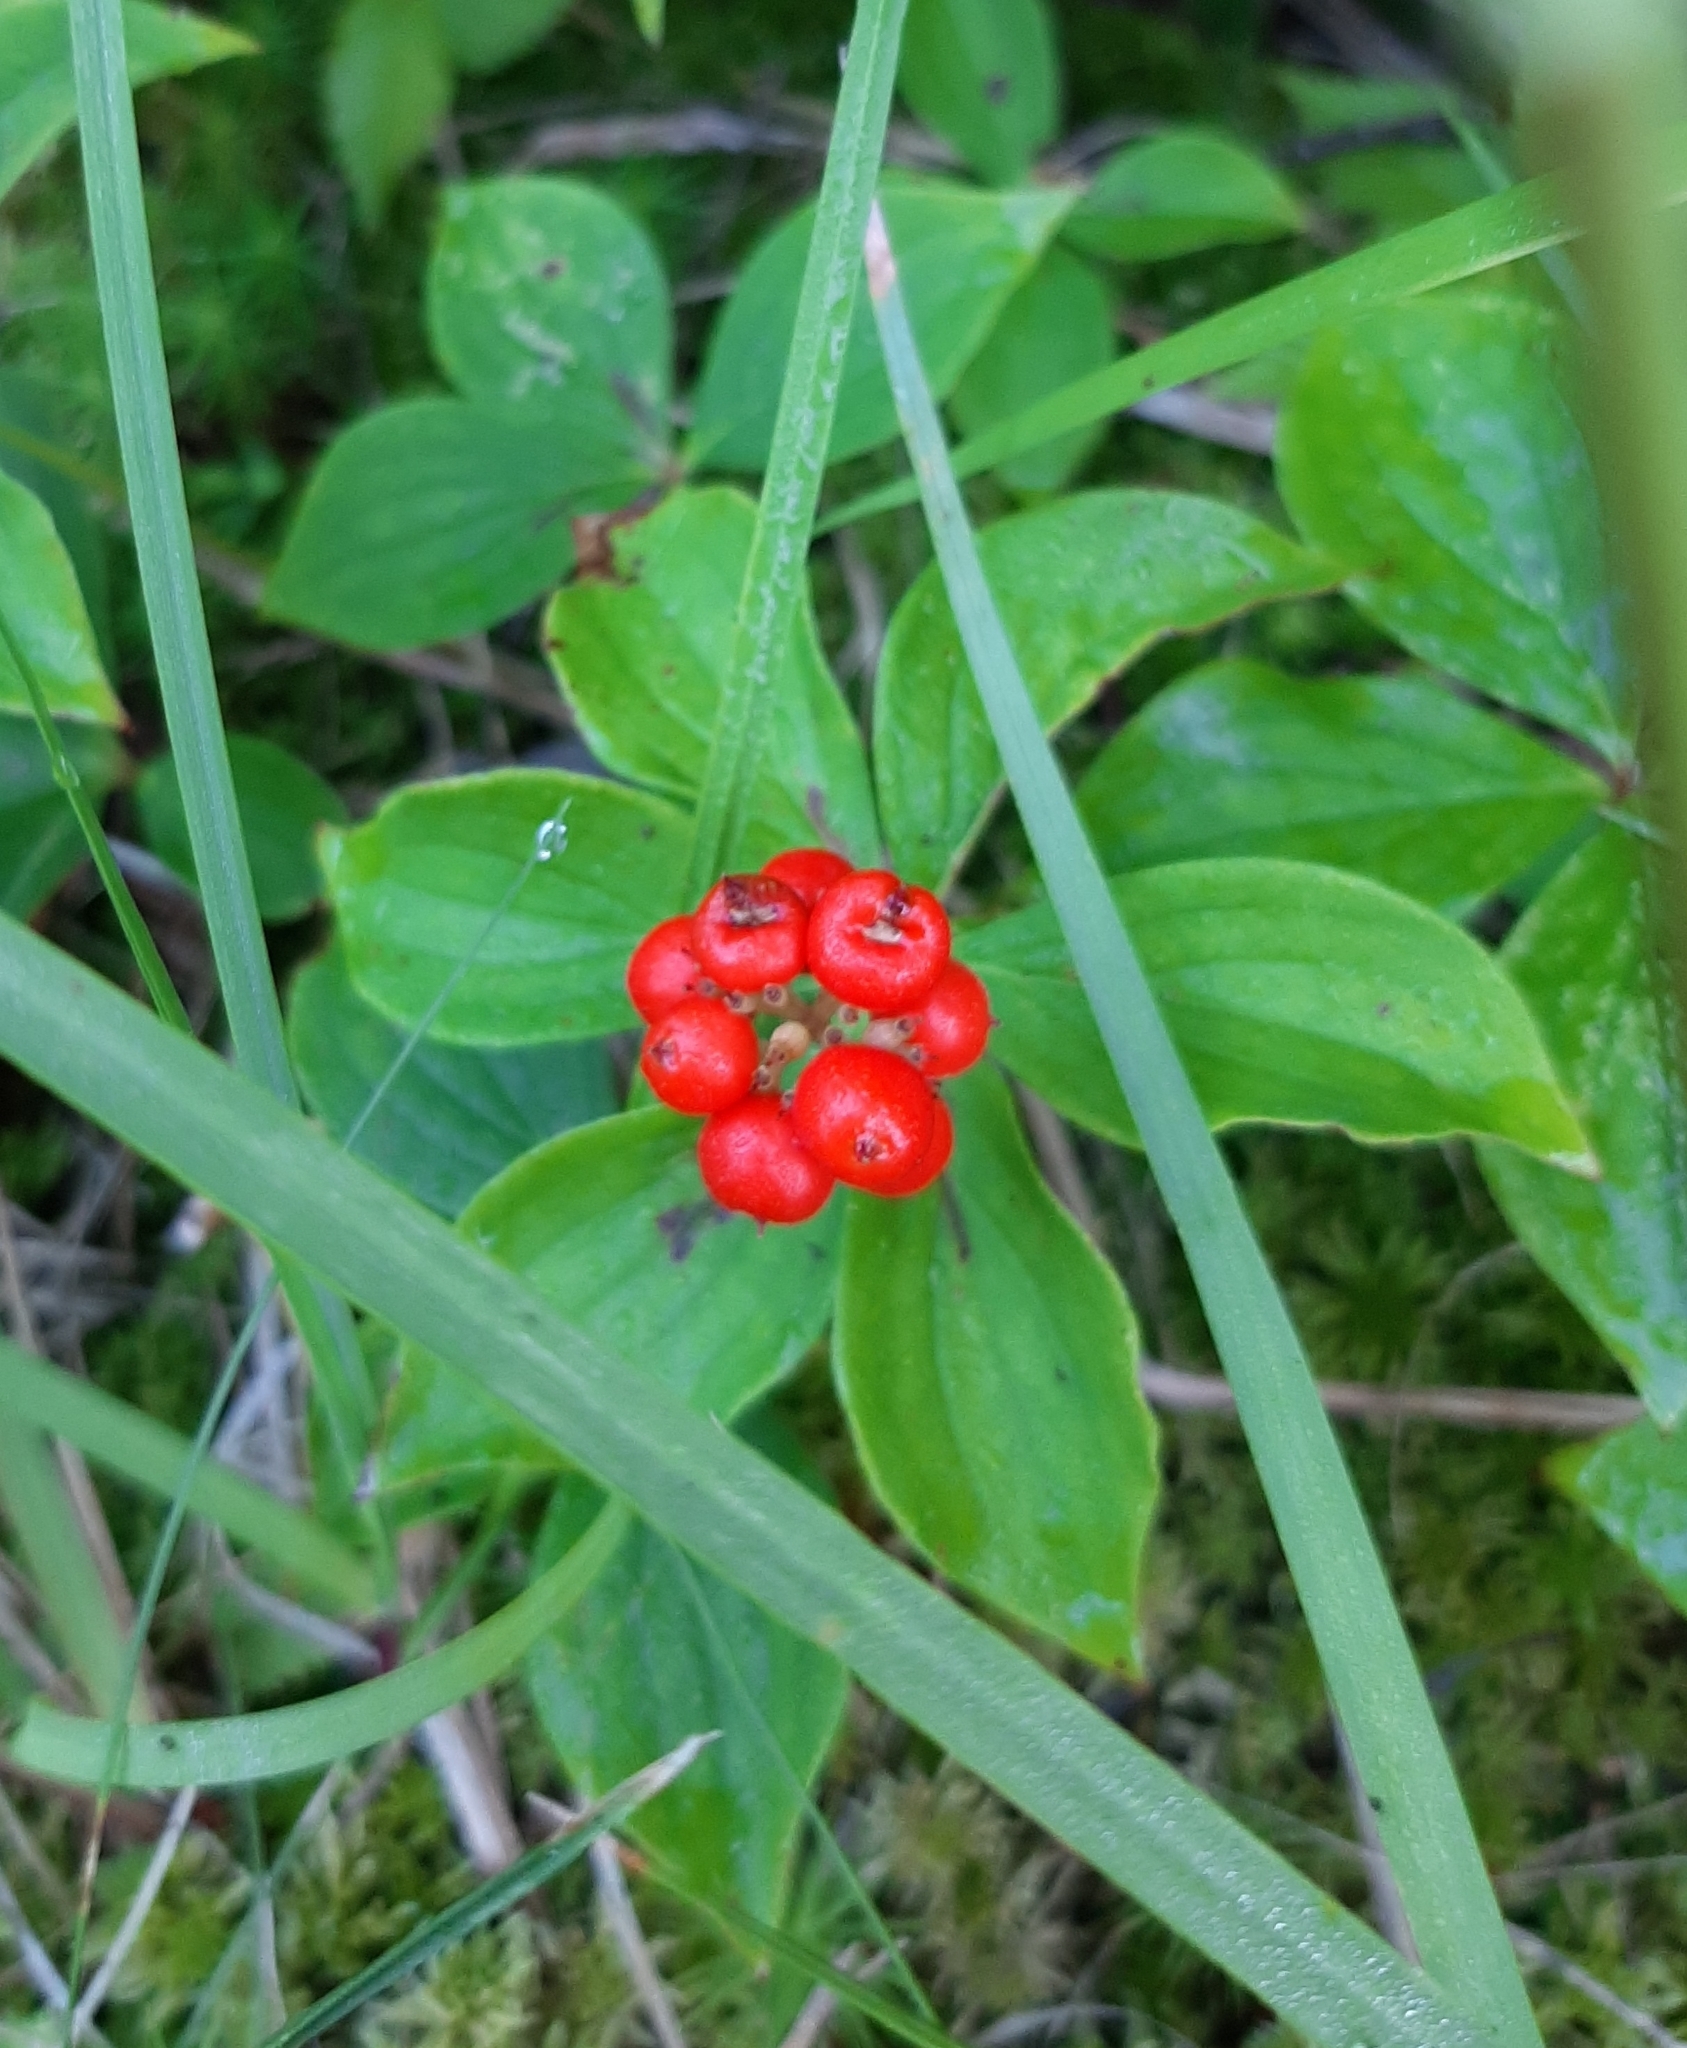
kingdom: Plantae
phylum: Tracheophyta
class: Magnoliopsida
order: Cornales
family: Cornaceae
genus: Cornus
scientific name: Cornus canadensis
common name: Creeping dogwood
